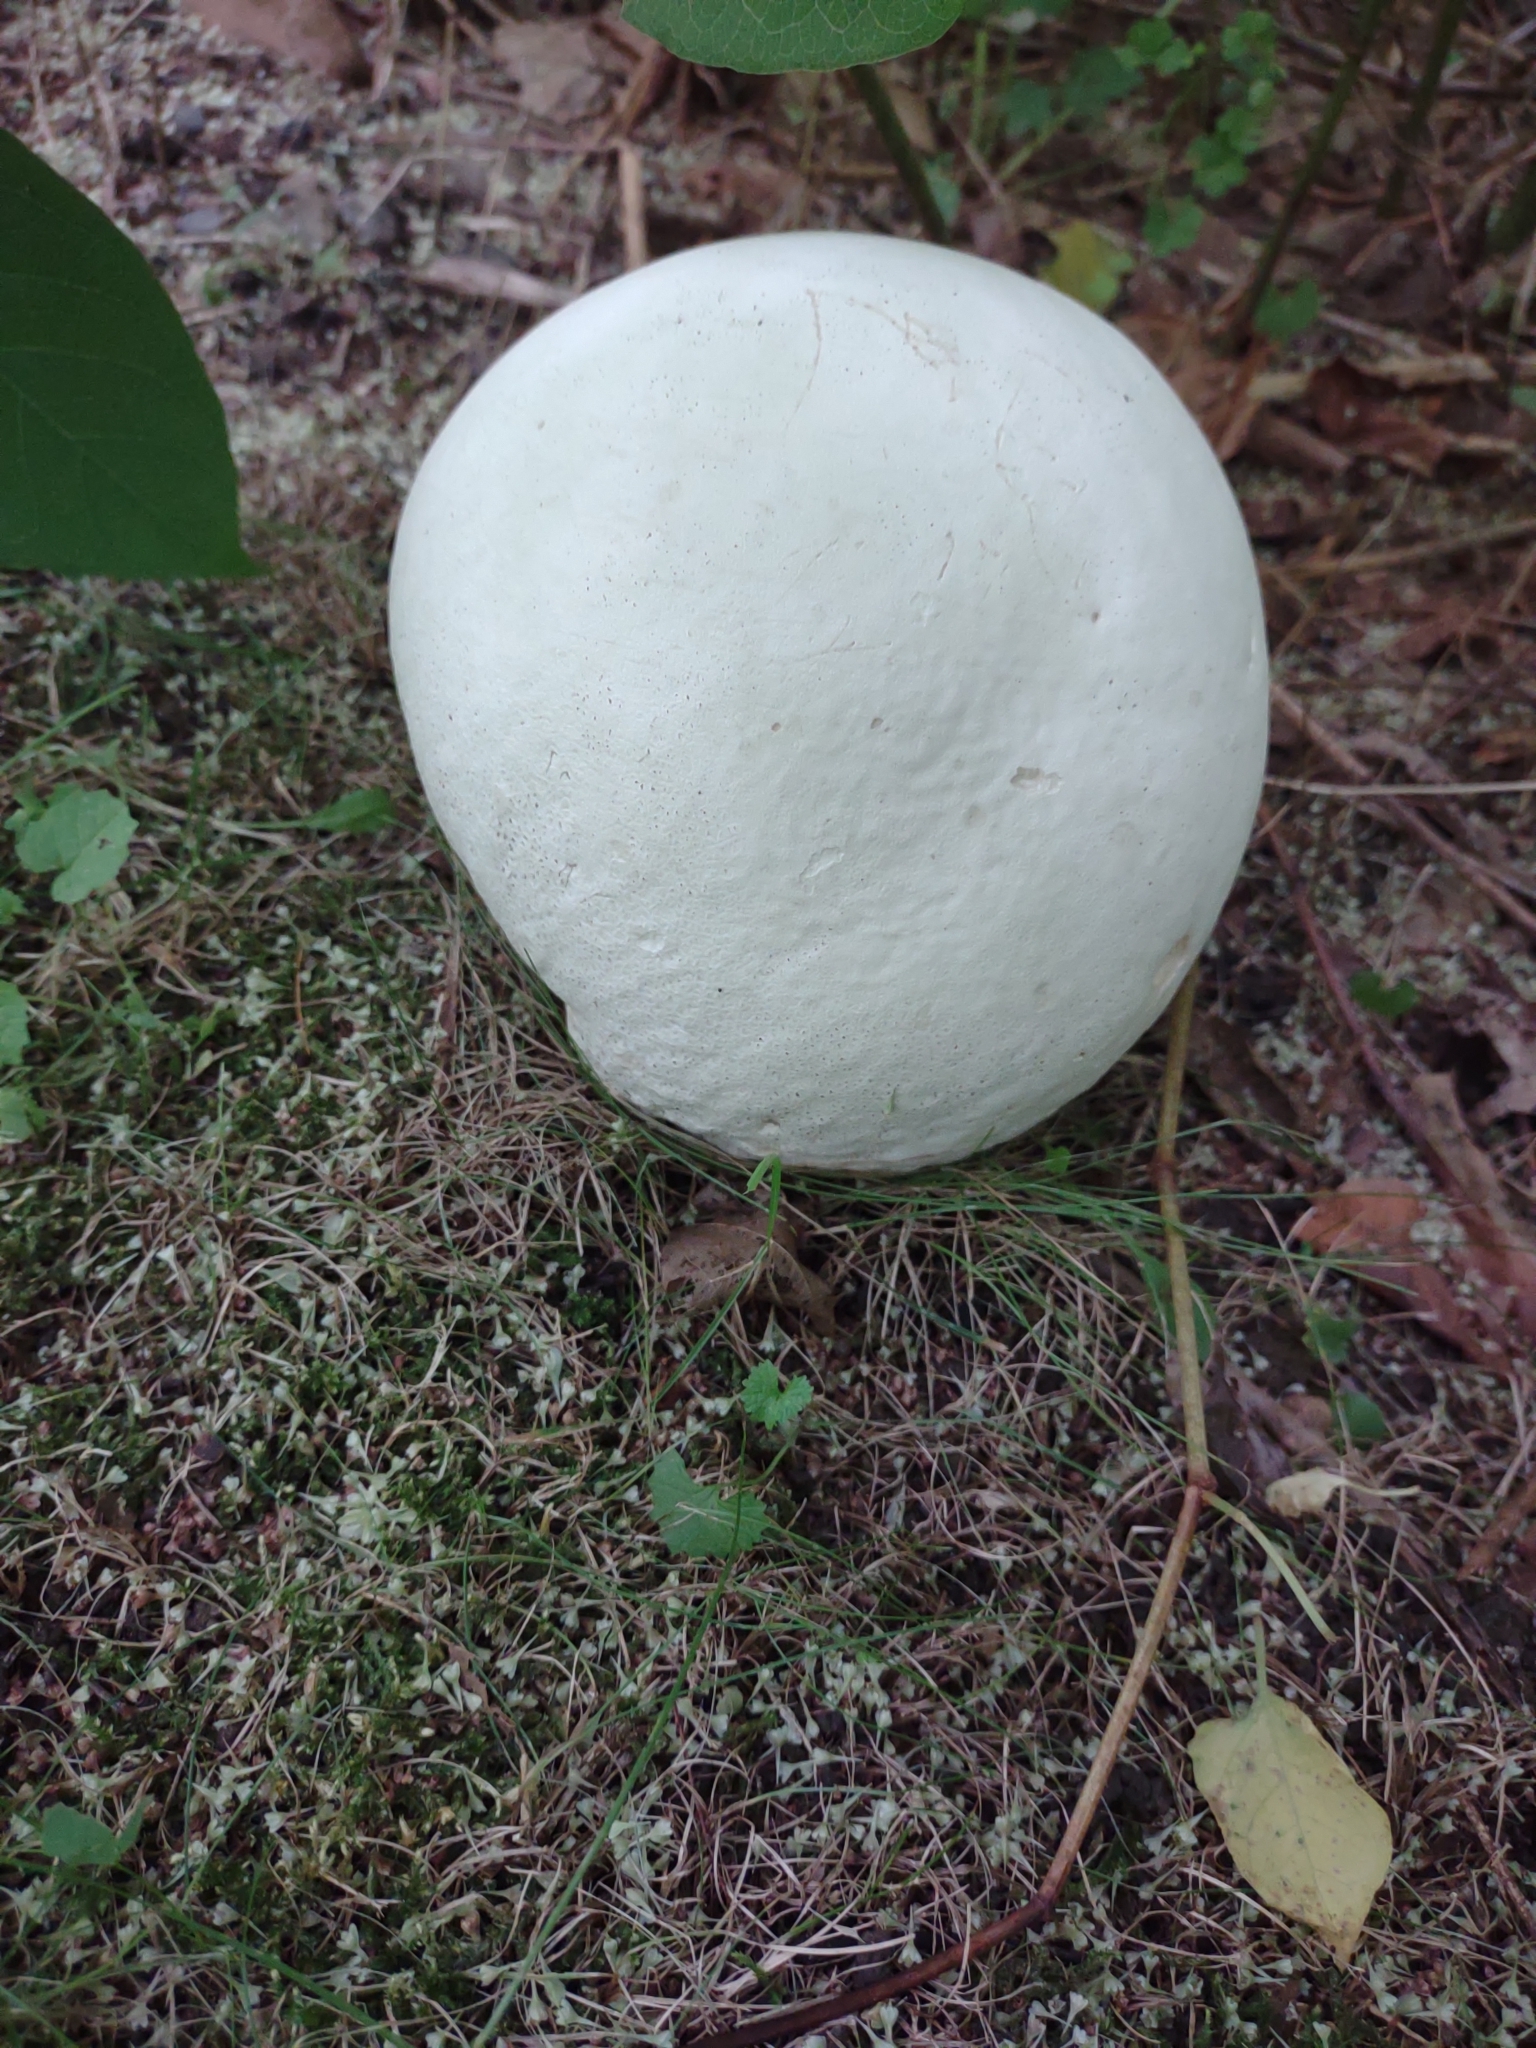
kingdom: Fungi
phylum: Basidiomycota
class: Agaricomycetes
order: Agaricales
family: Lycoperdaceae
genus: Calvatia
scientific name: Calvatia gigantea
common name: Giant puffball
